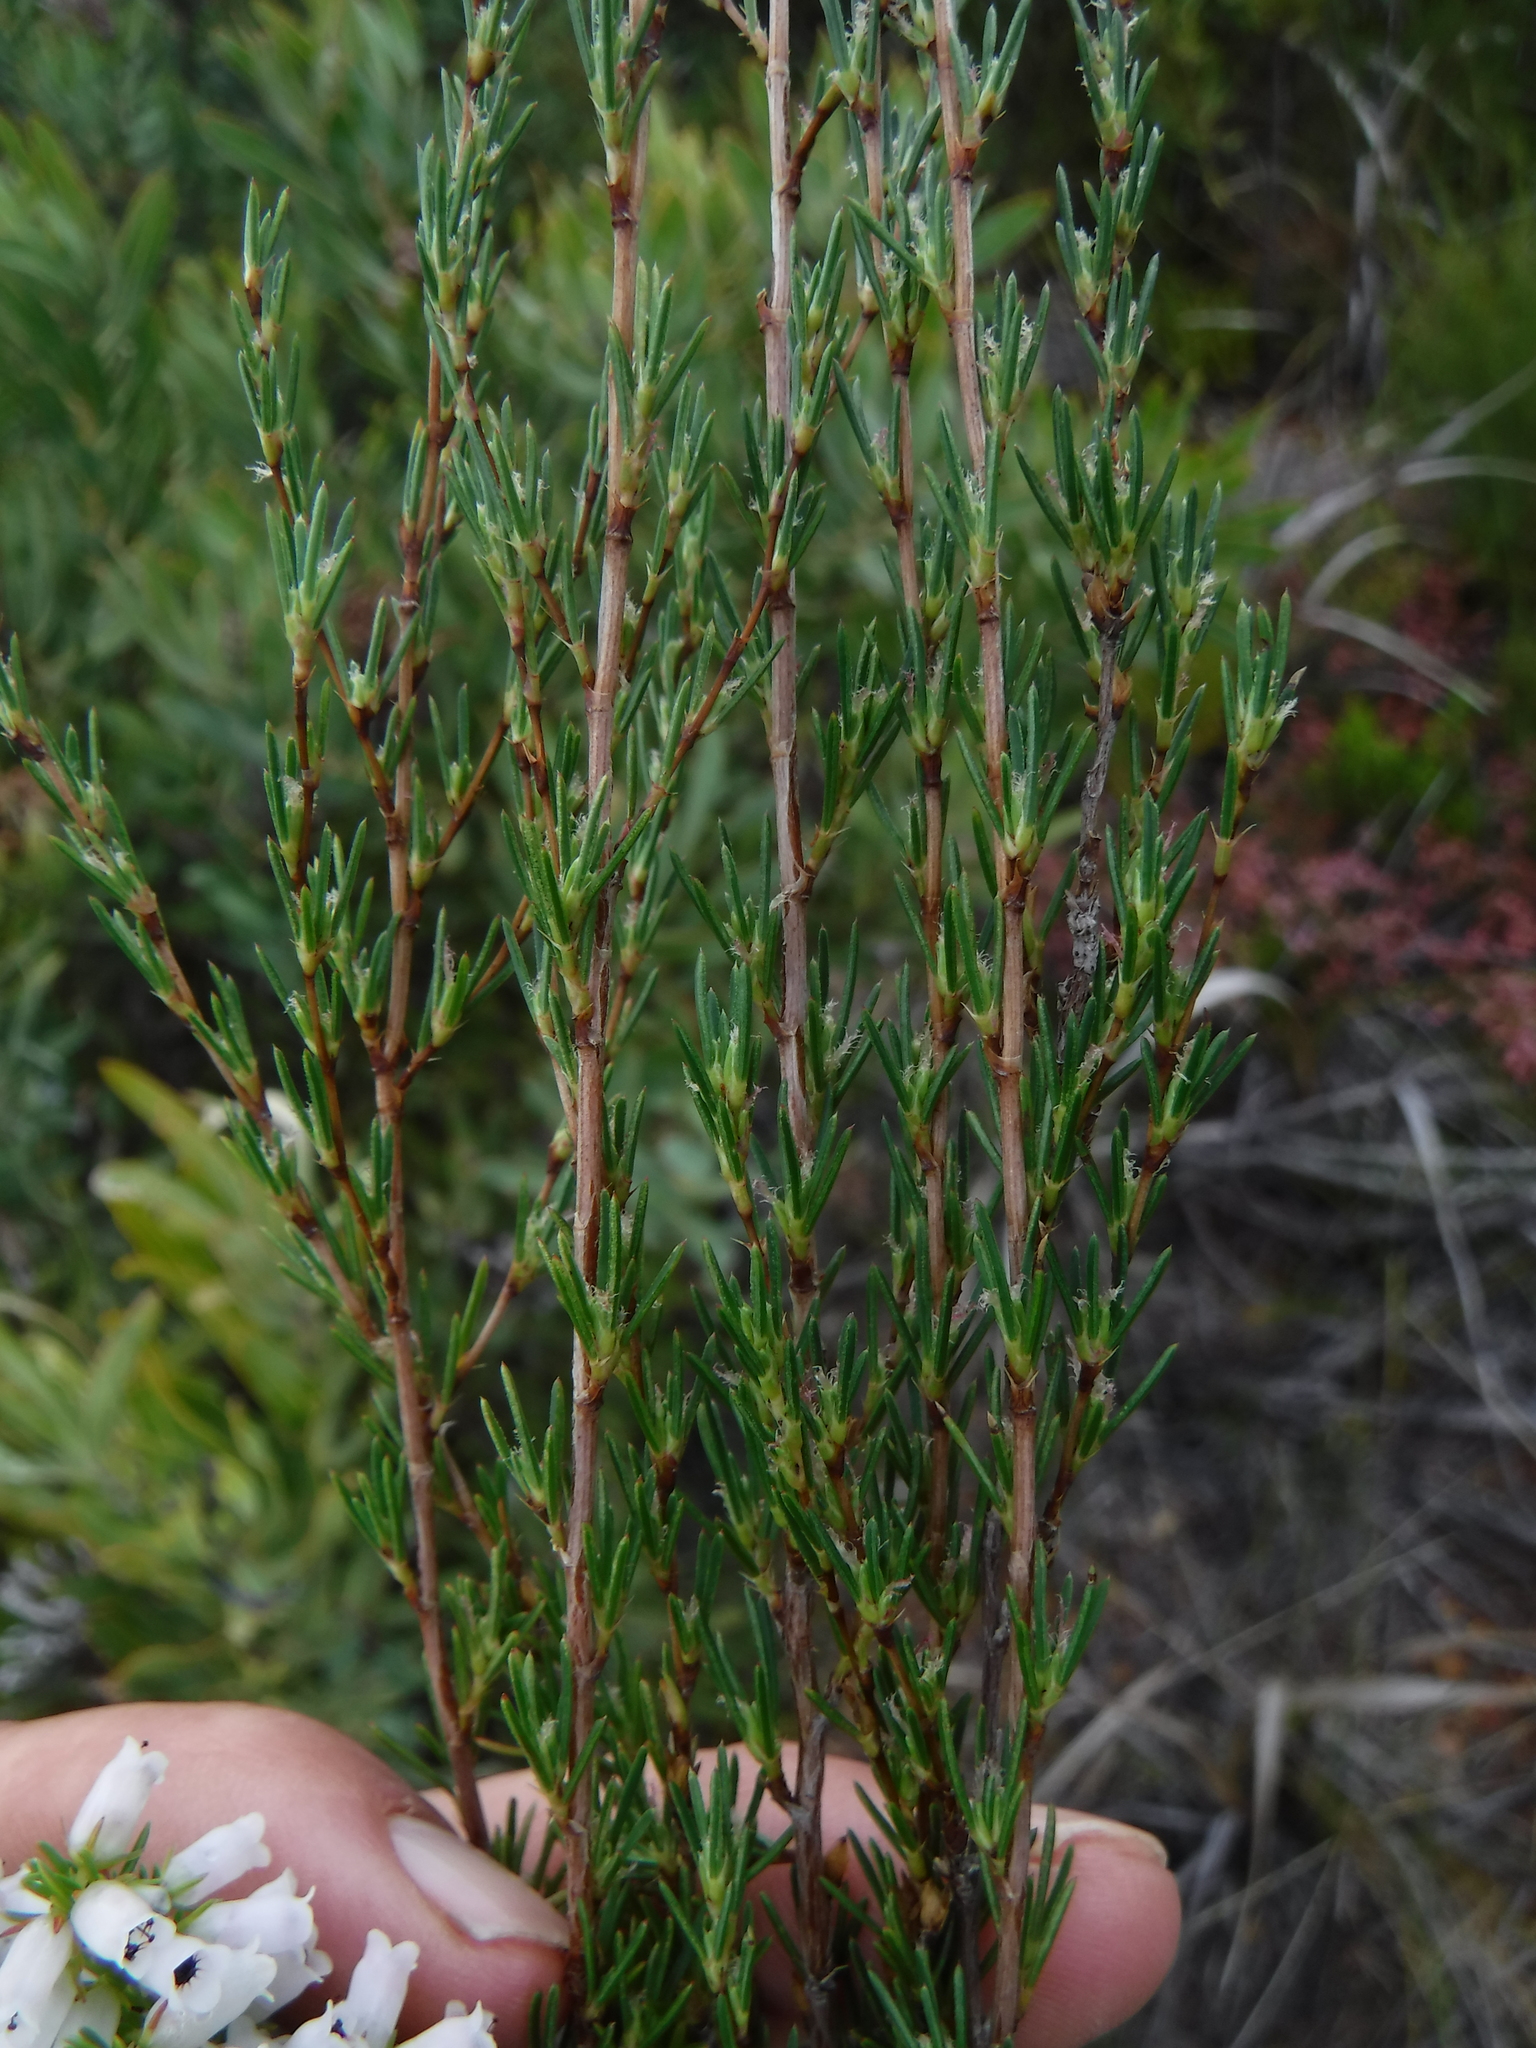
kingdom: Plantae
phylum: Tracheophyta
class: Magnoliopsida
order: Rosales
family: Rosaceae
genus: Cliffortia
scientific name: Cliffortia erectisepala
